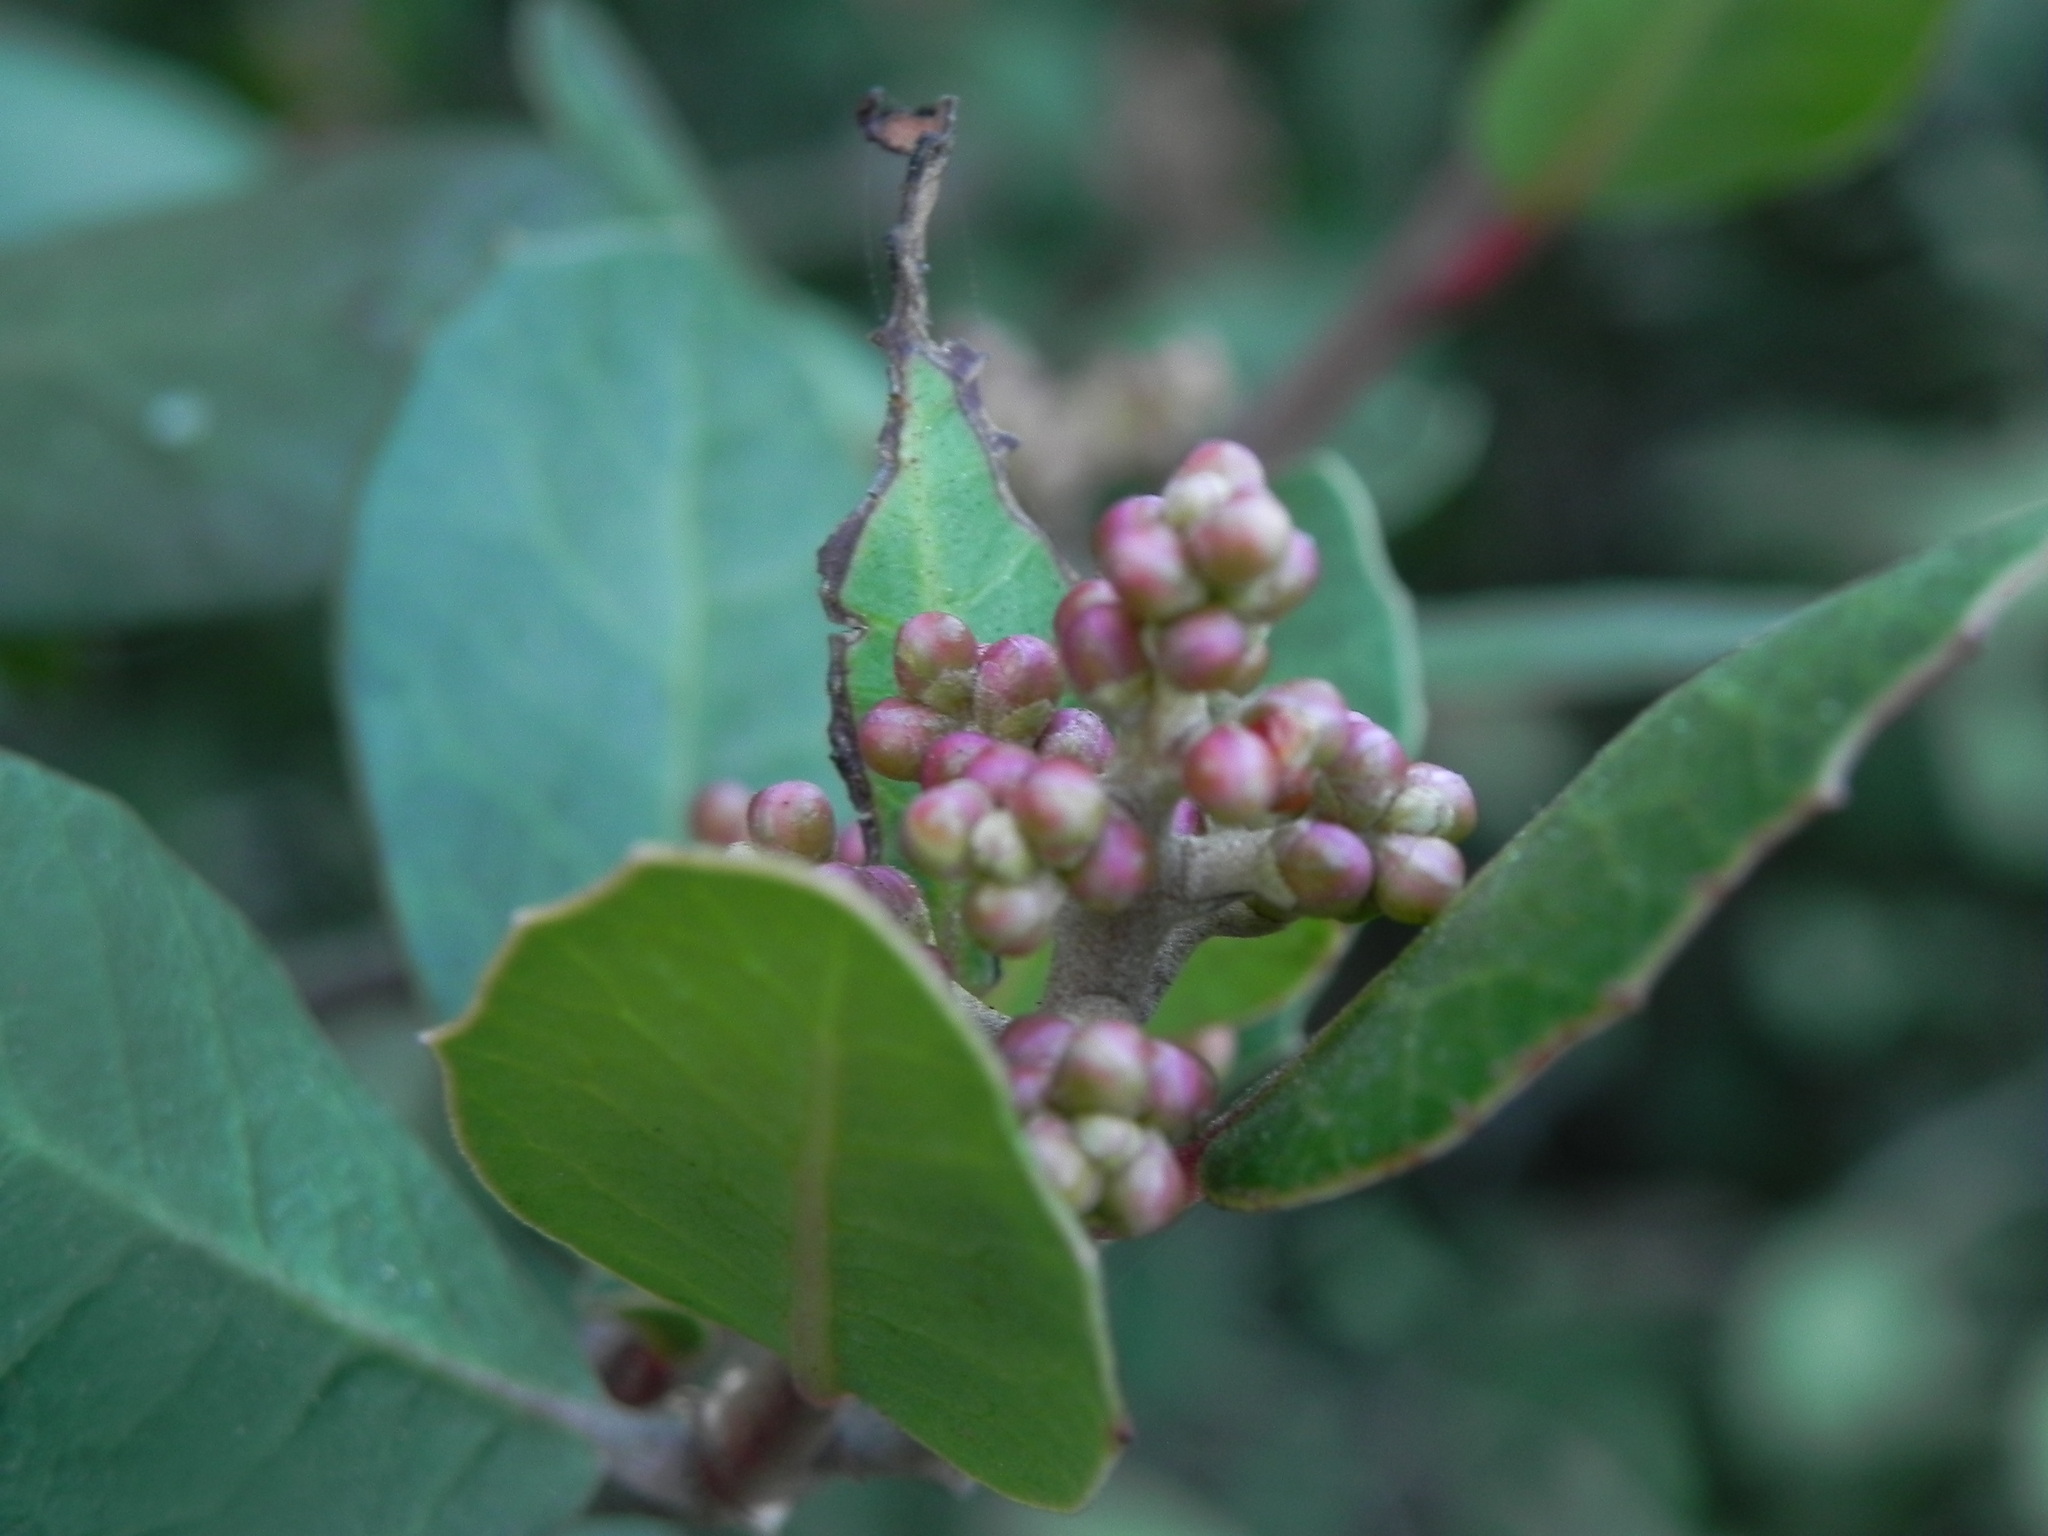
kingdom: Plantae
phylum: Tracheophyta
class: Magnoliopsida
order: Sapindales
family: Anacardiaceae
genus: Rhus
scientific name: Rhus integrifolia
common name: Lemonade sumac
